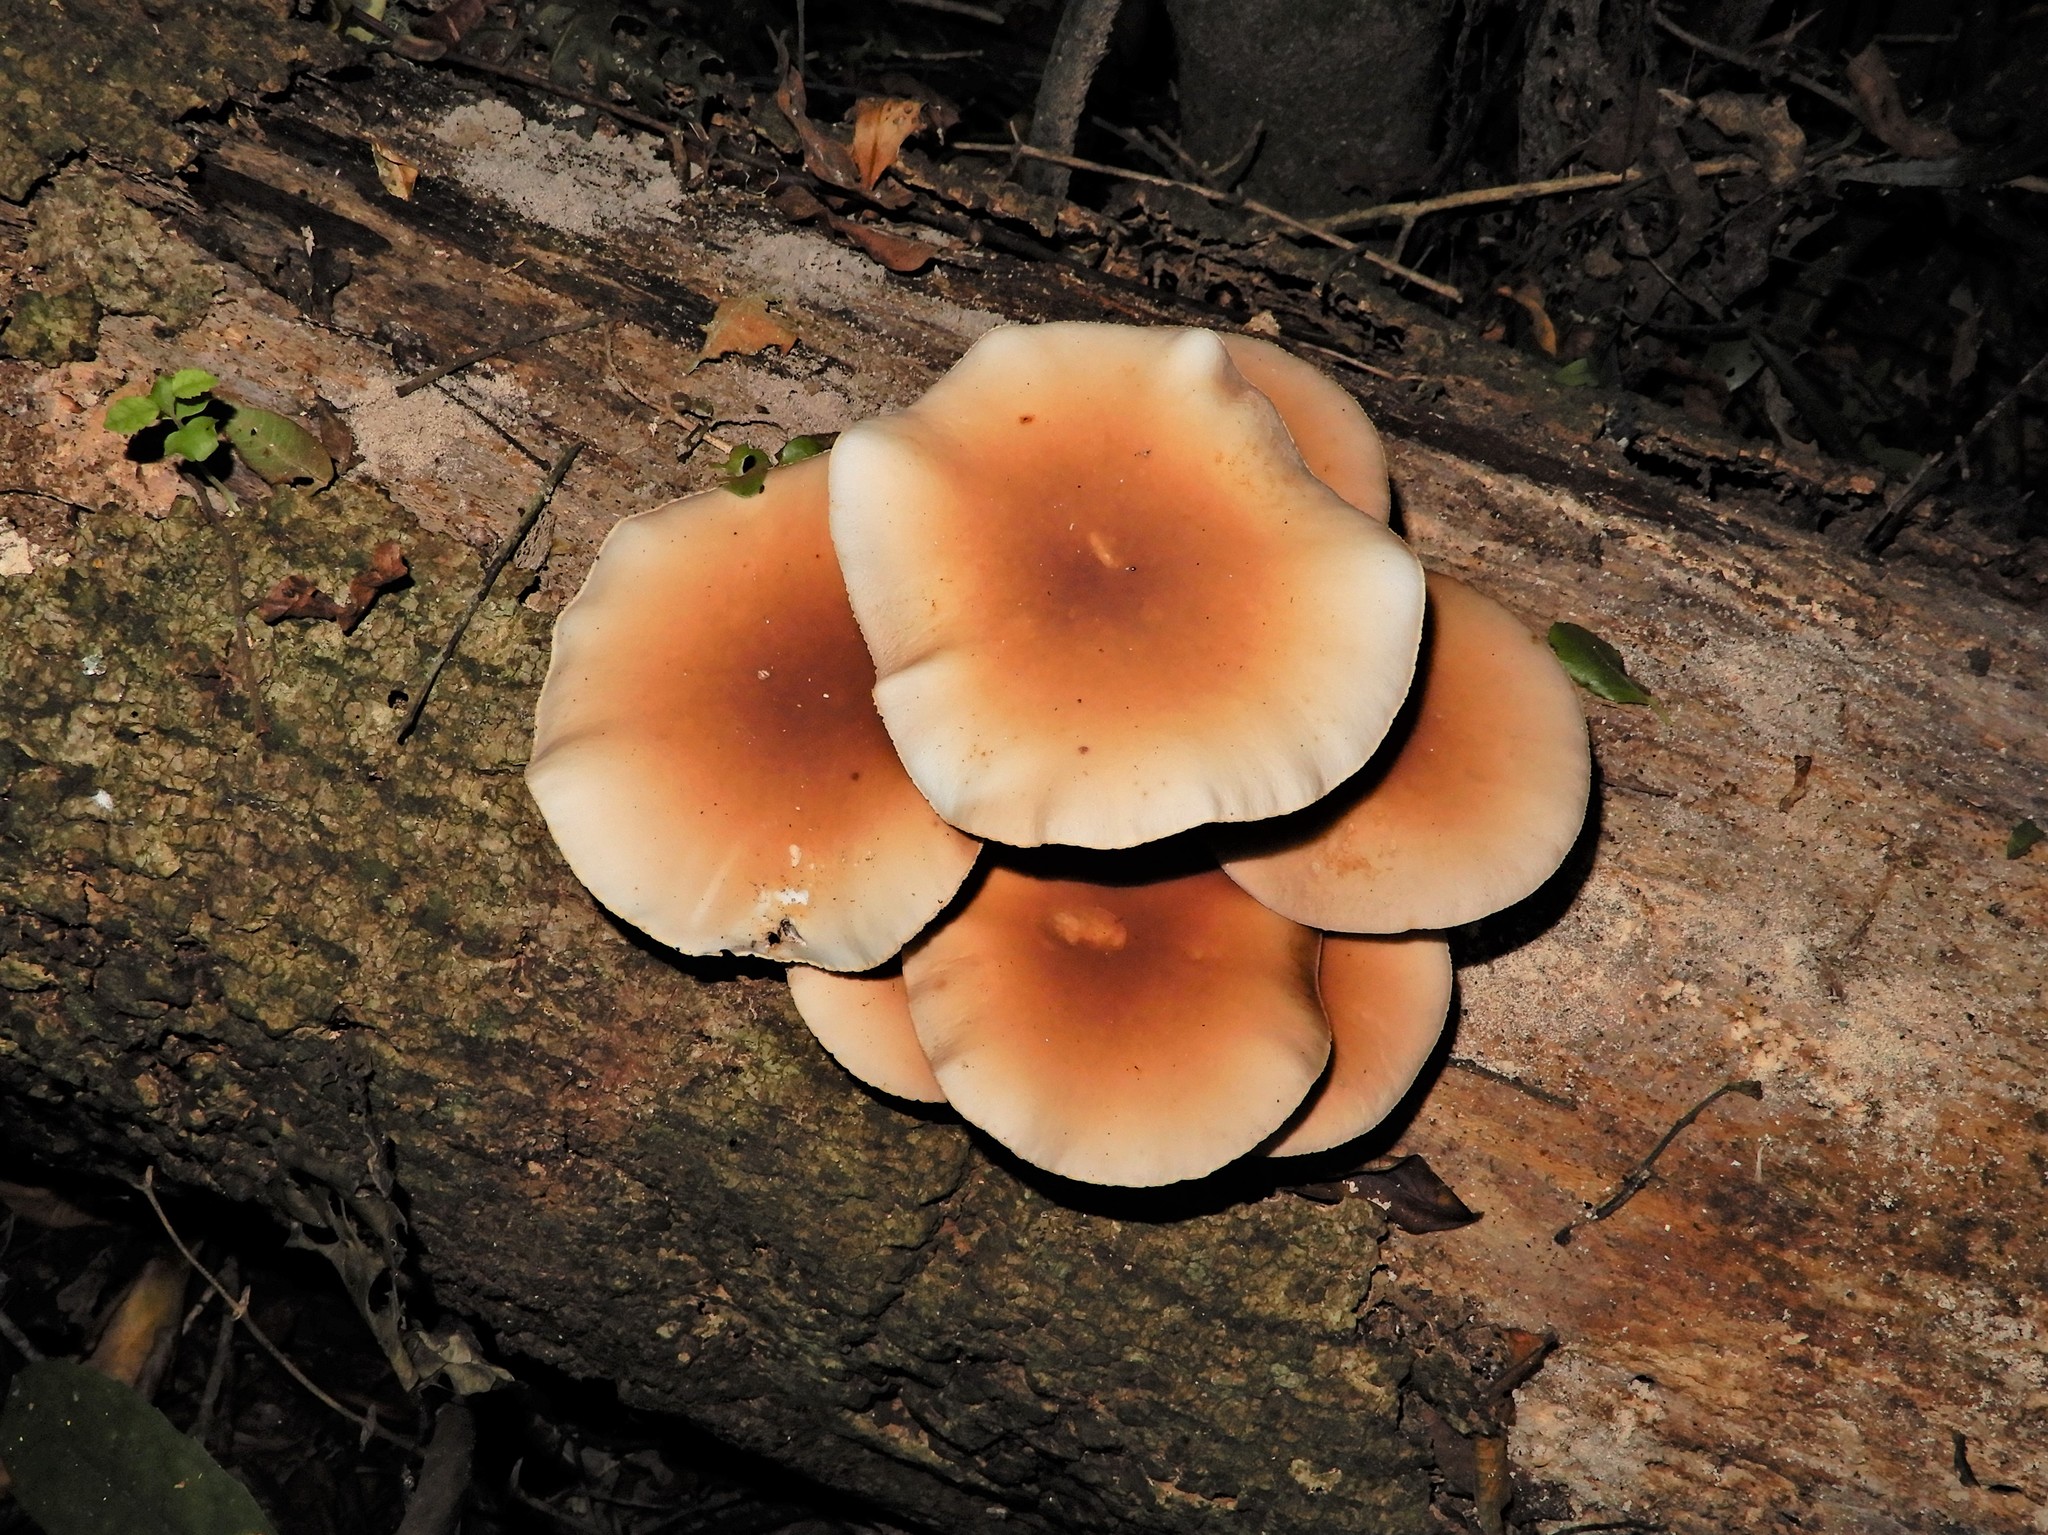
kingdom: Fungi
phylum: Basidiomycota
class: Agaricomycetes
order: Agaricales
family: Tubariaceae
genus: Cyclocybe
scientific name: Cyclocybe parasitica
